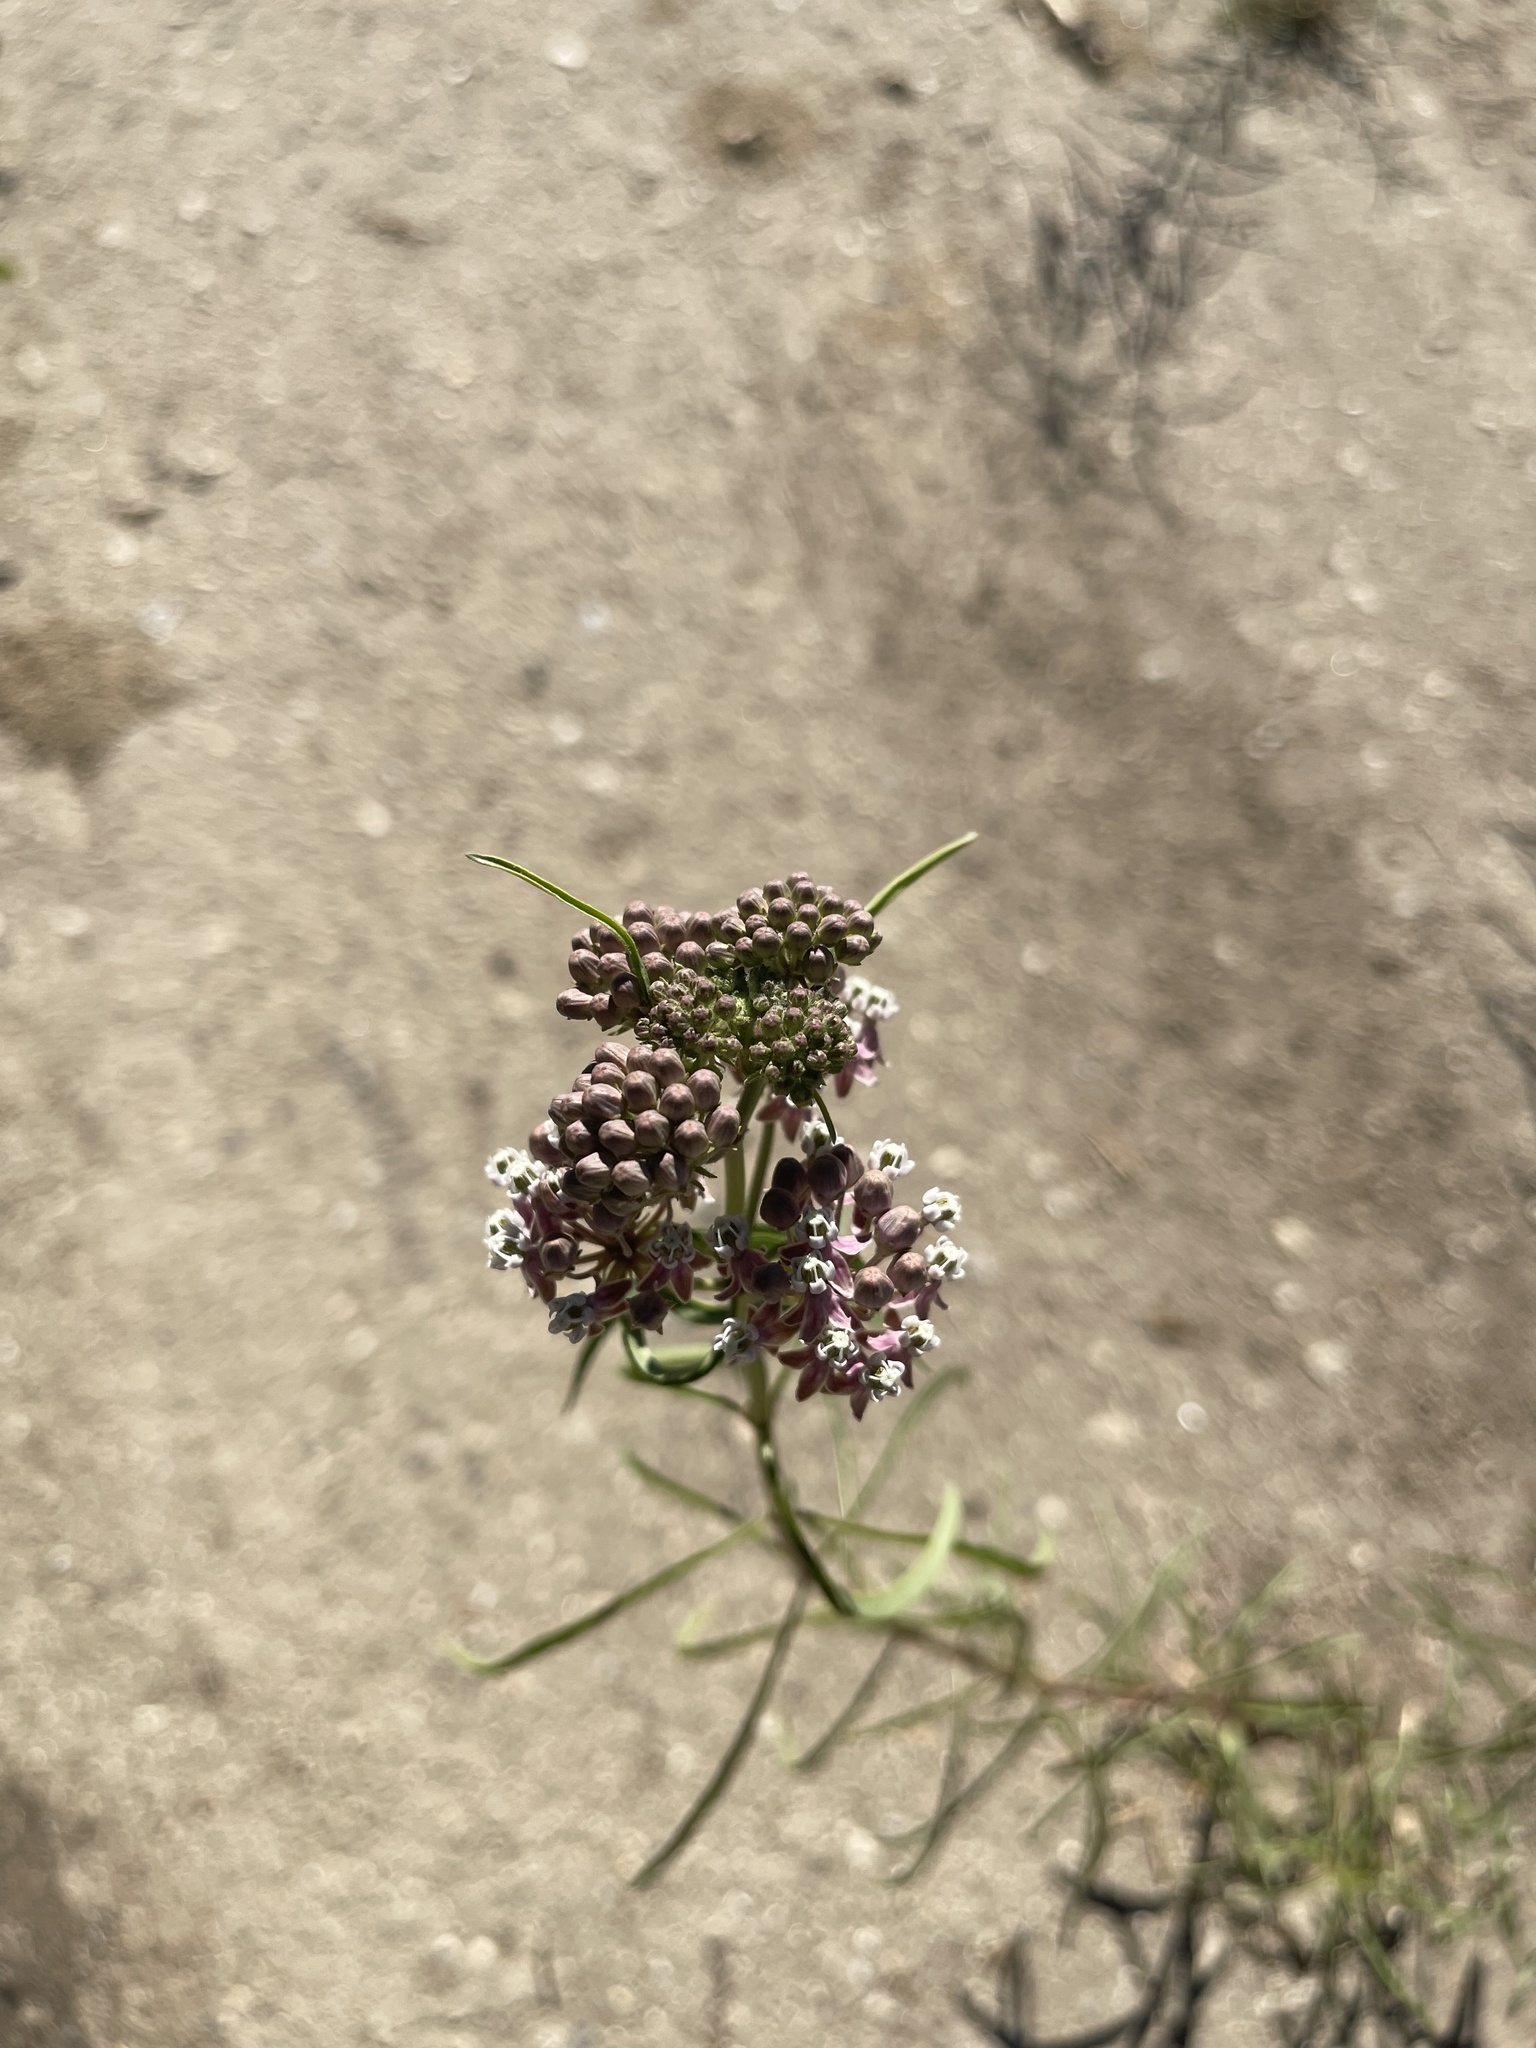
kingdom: Plantae
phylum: Tracheophyta
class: Magnoliopsida
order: Gentianales
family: Apocynaceae
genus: Asclepias
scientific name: Asclepias fascicularis
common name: Mexican milkweed
